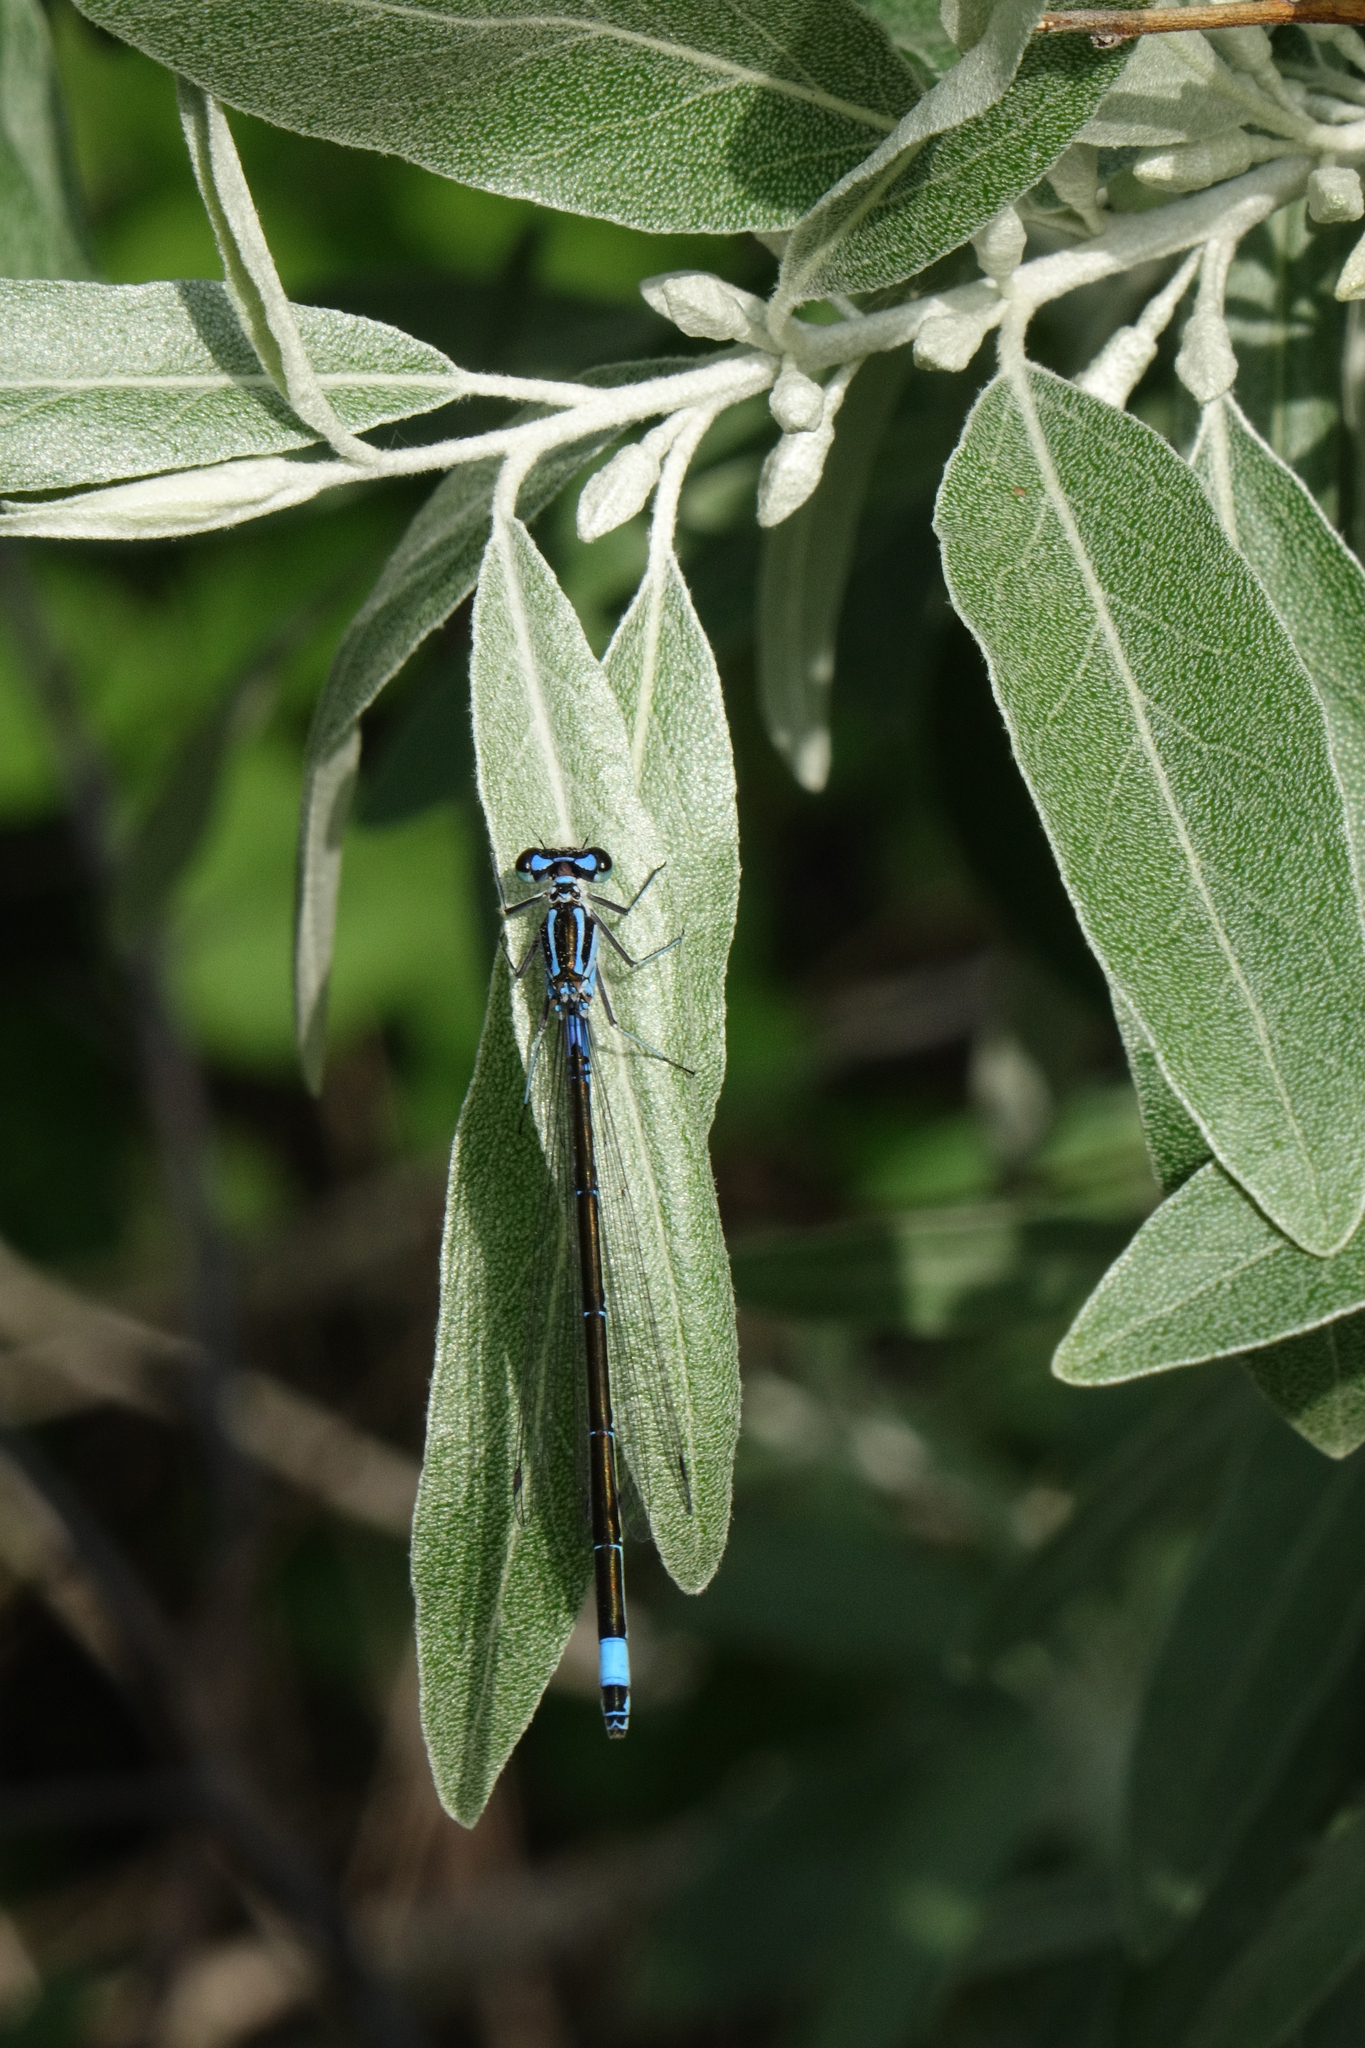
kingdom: Animalia
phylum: Arthropoda
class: Insecta
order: Odonata
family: Coenagrionidae
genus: Coenagrion
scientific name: Coenagrion pulchellum
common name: Variable bluet
